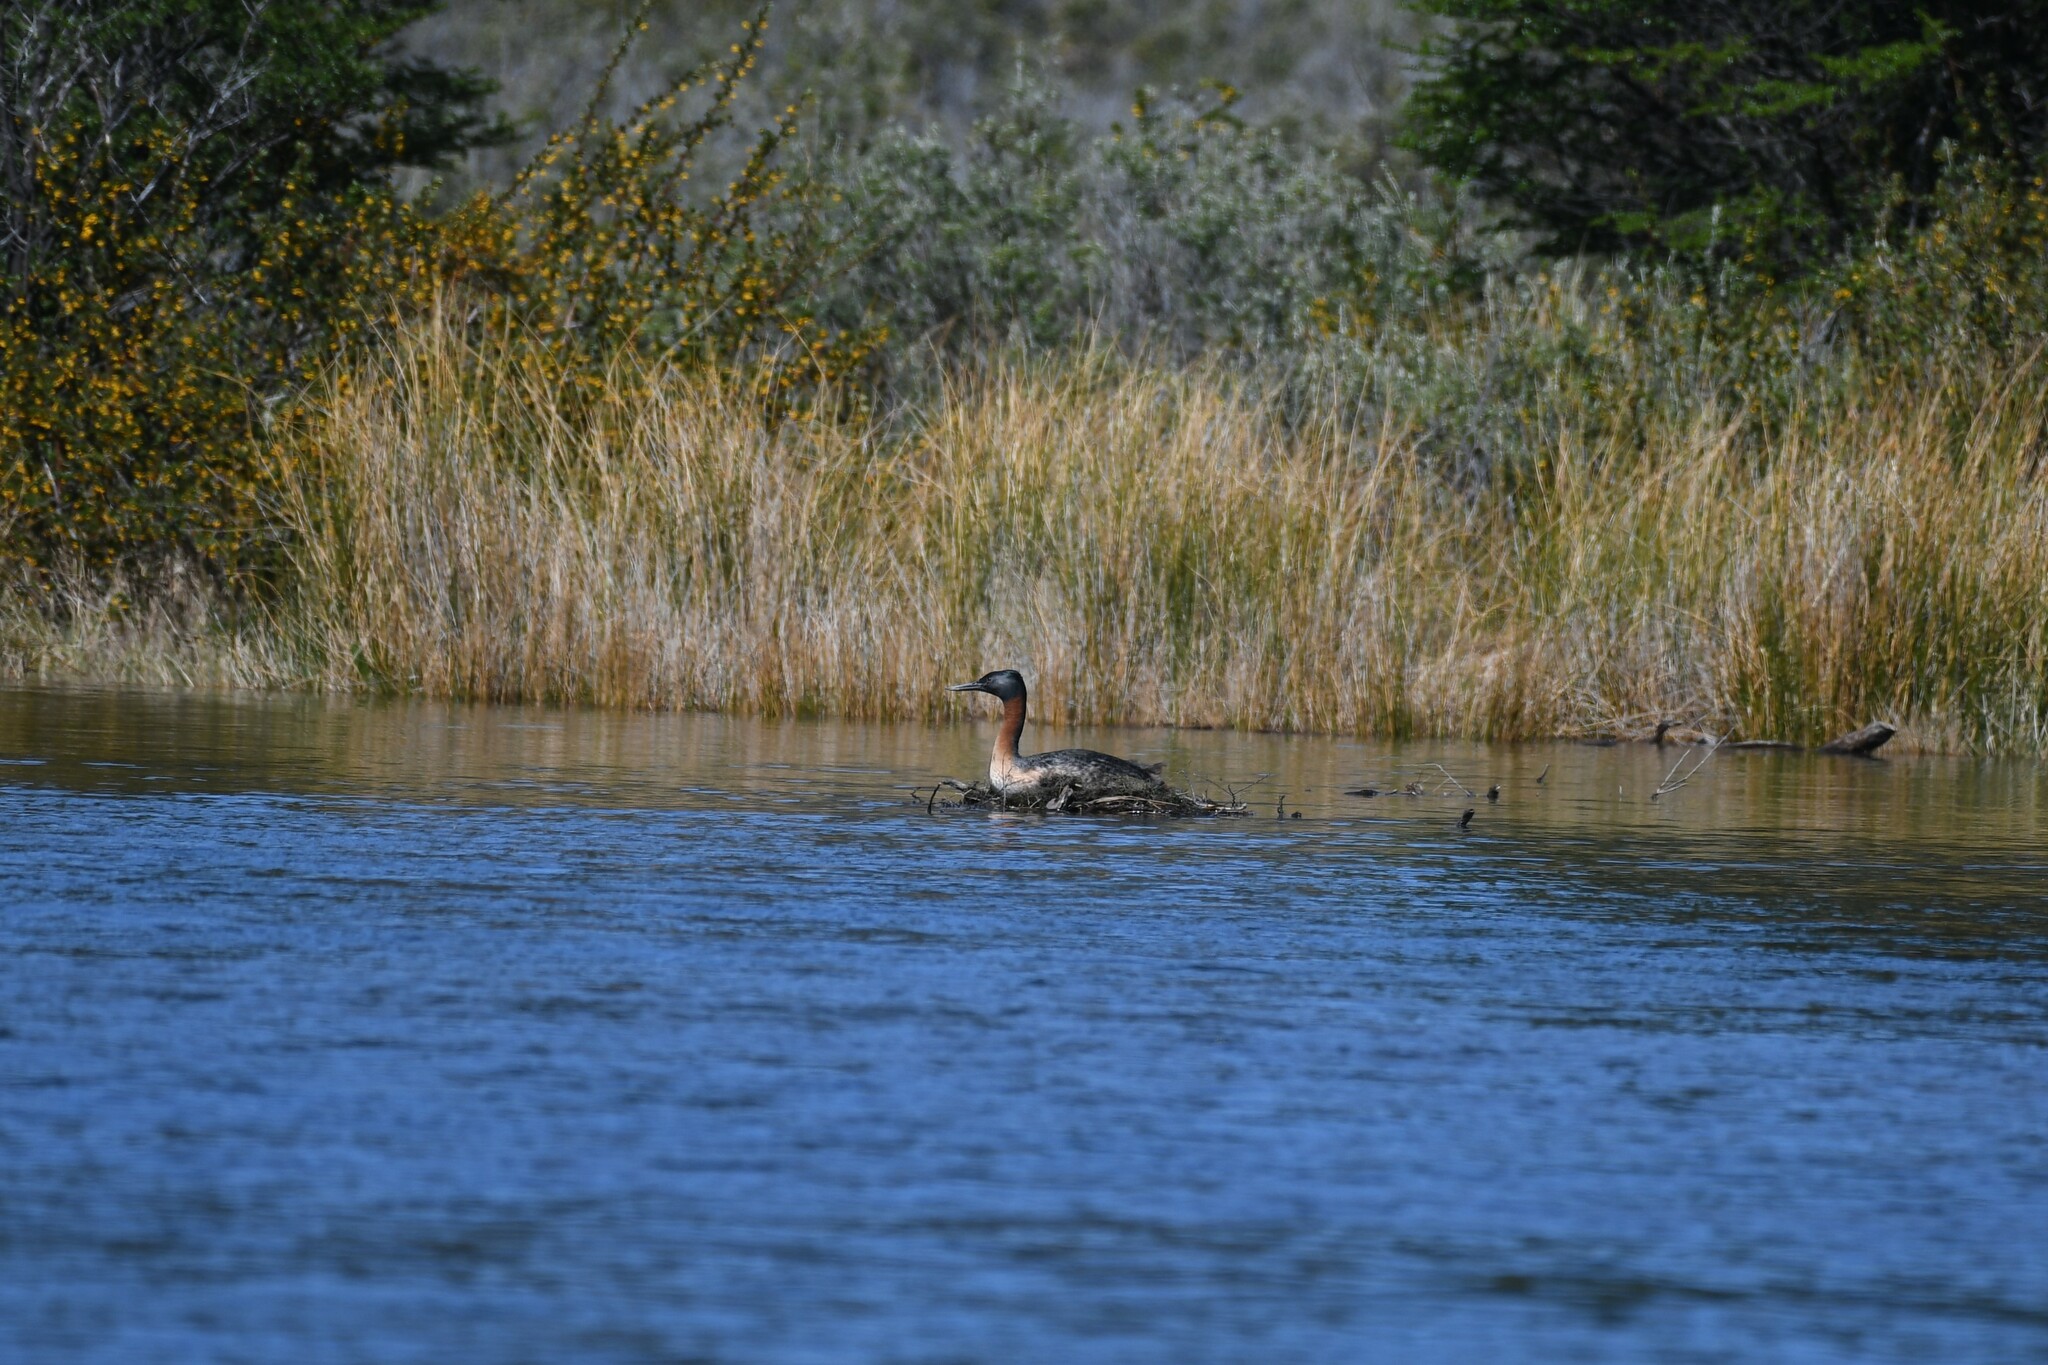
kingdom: Animalia
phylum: Chordata
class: Aves
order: Podicipediformes
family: Podicipedidae
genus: Podiceps
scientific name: Podiceps major
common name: Great grebe
